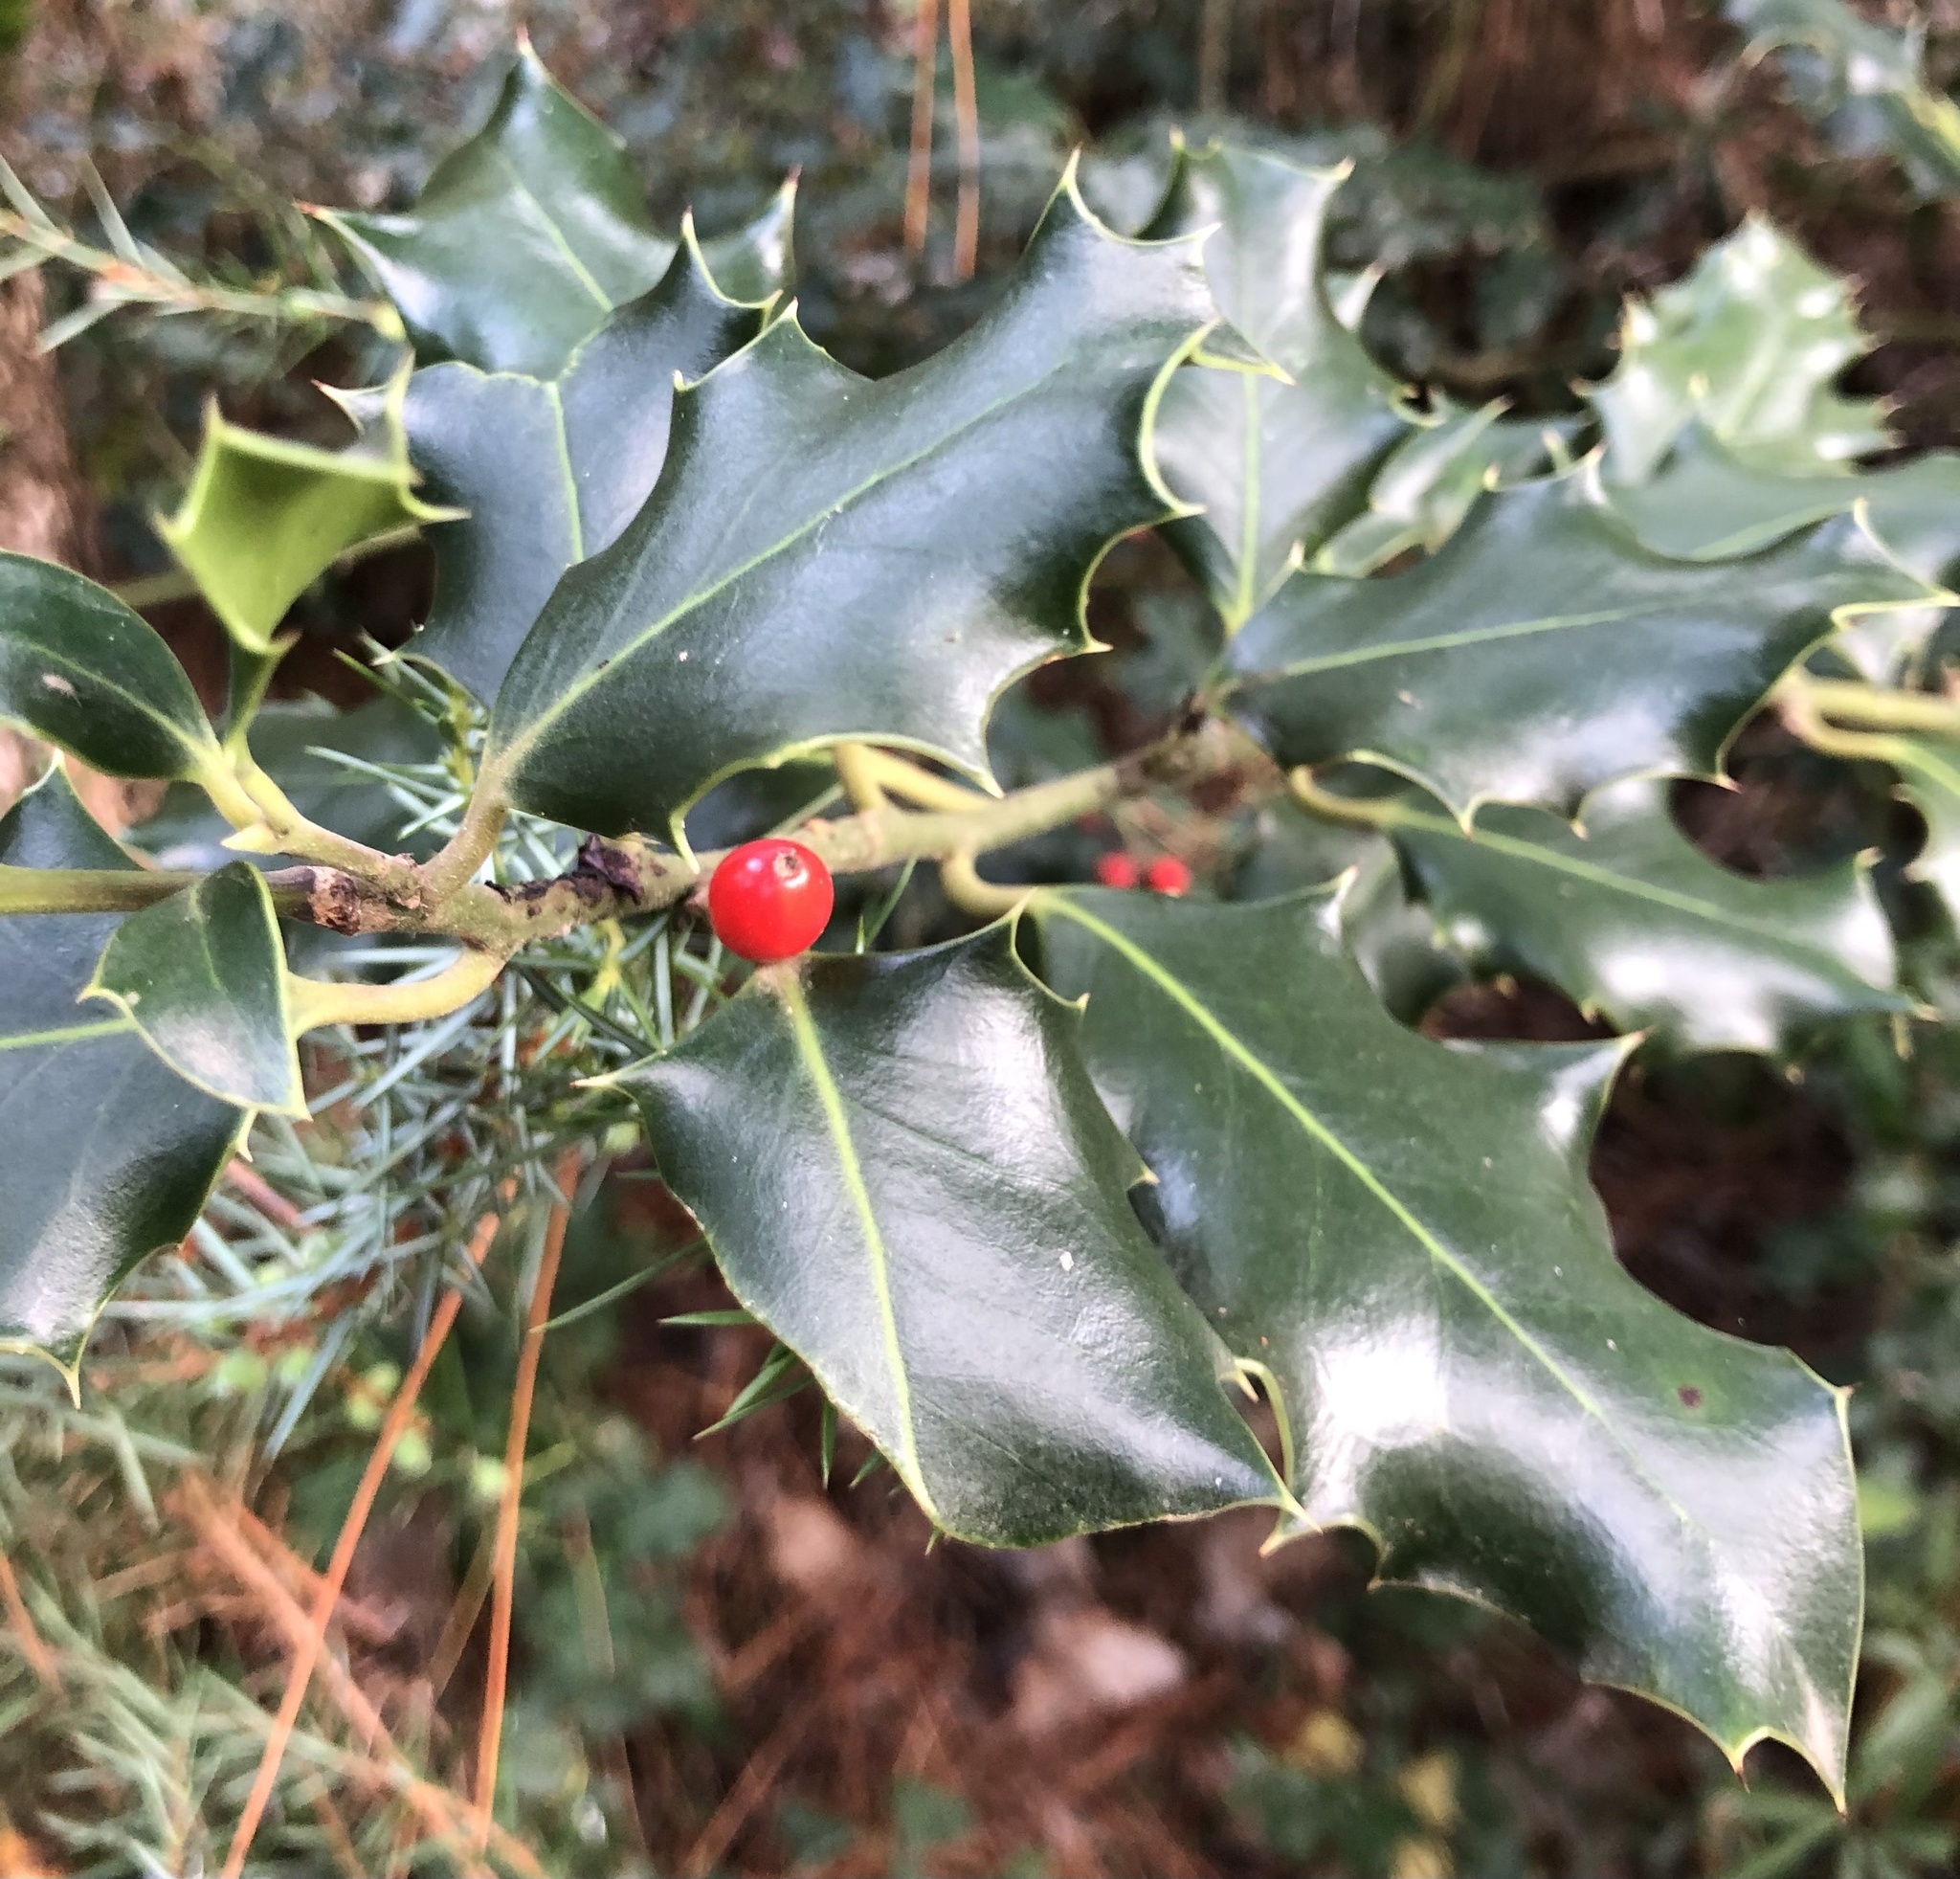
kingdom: Plantae
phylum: Tracheophyta
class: Magnoliopsida
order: Aquifoliales
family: Aquifoliaceae
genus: Ilex
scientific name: Ilex aquifolium
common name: English holly
